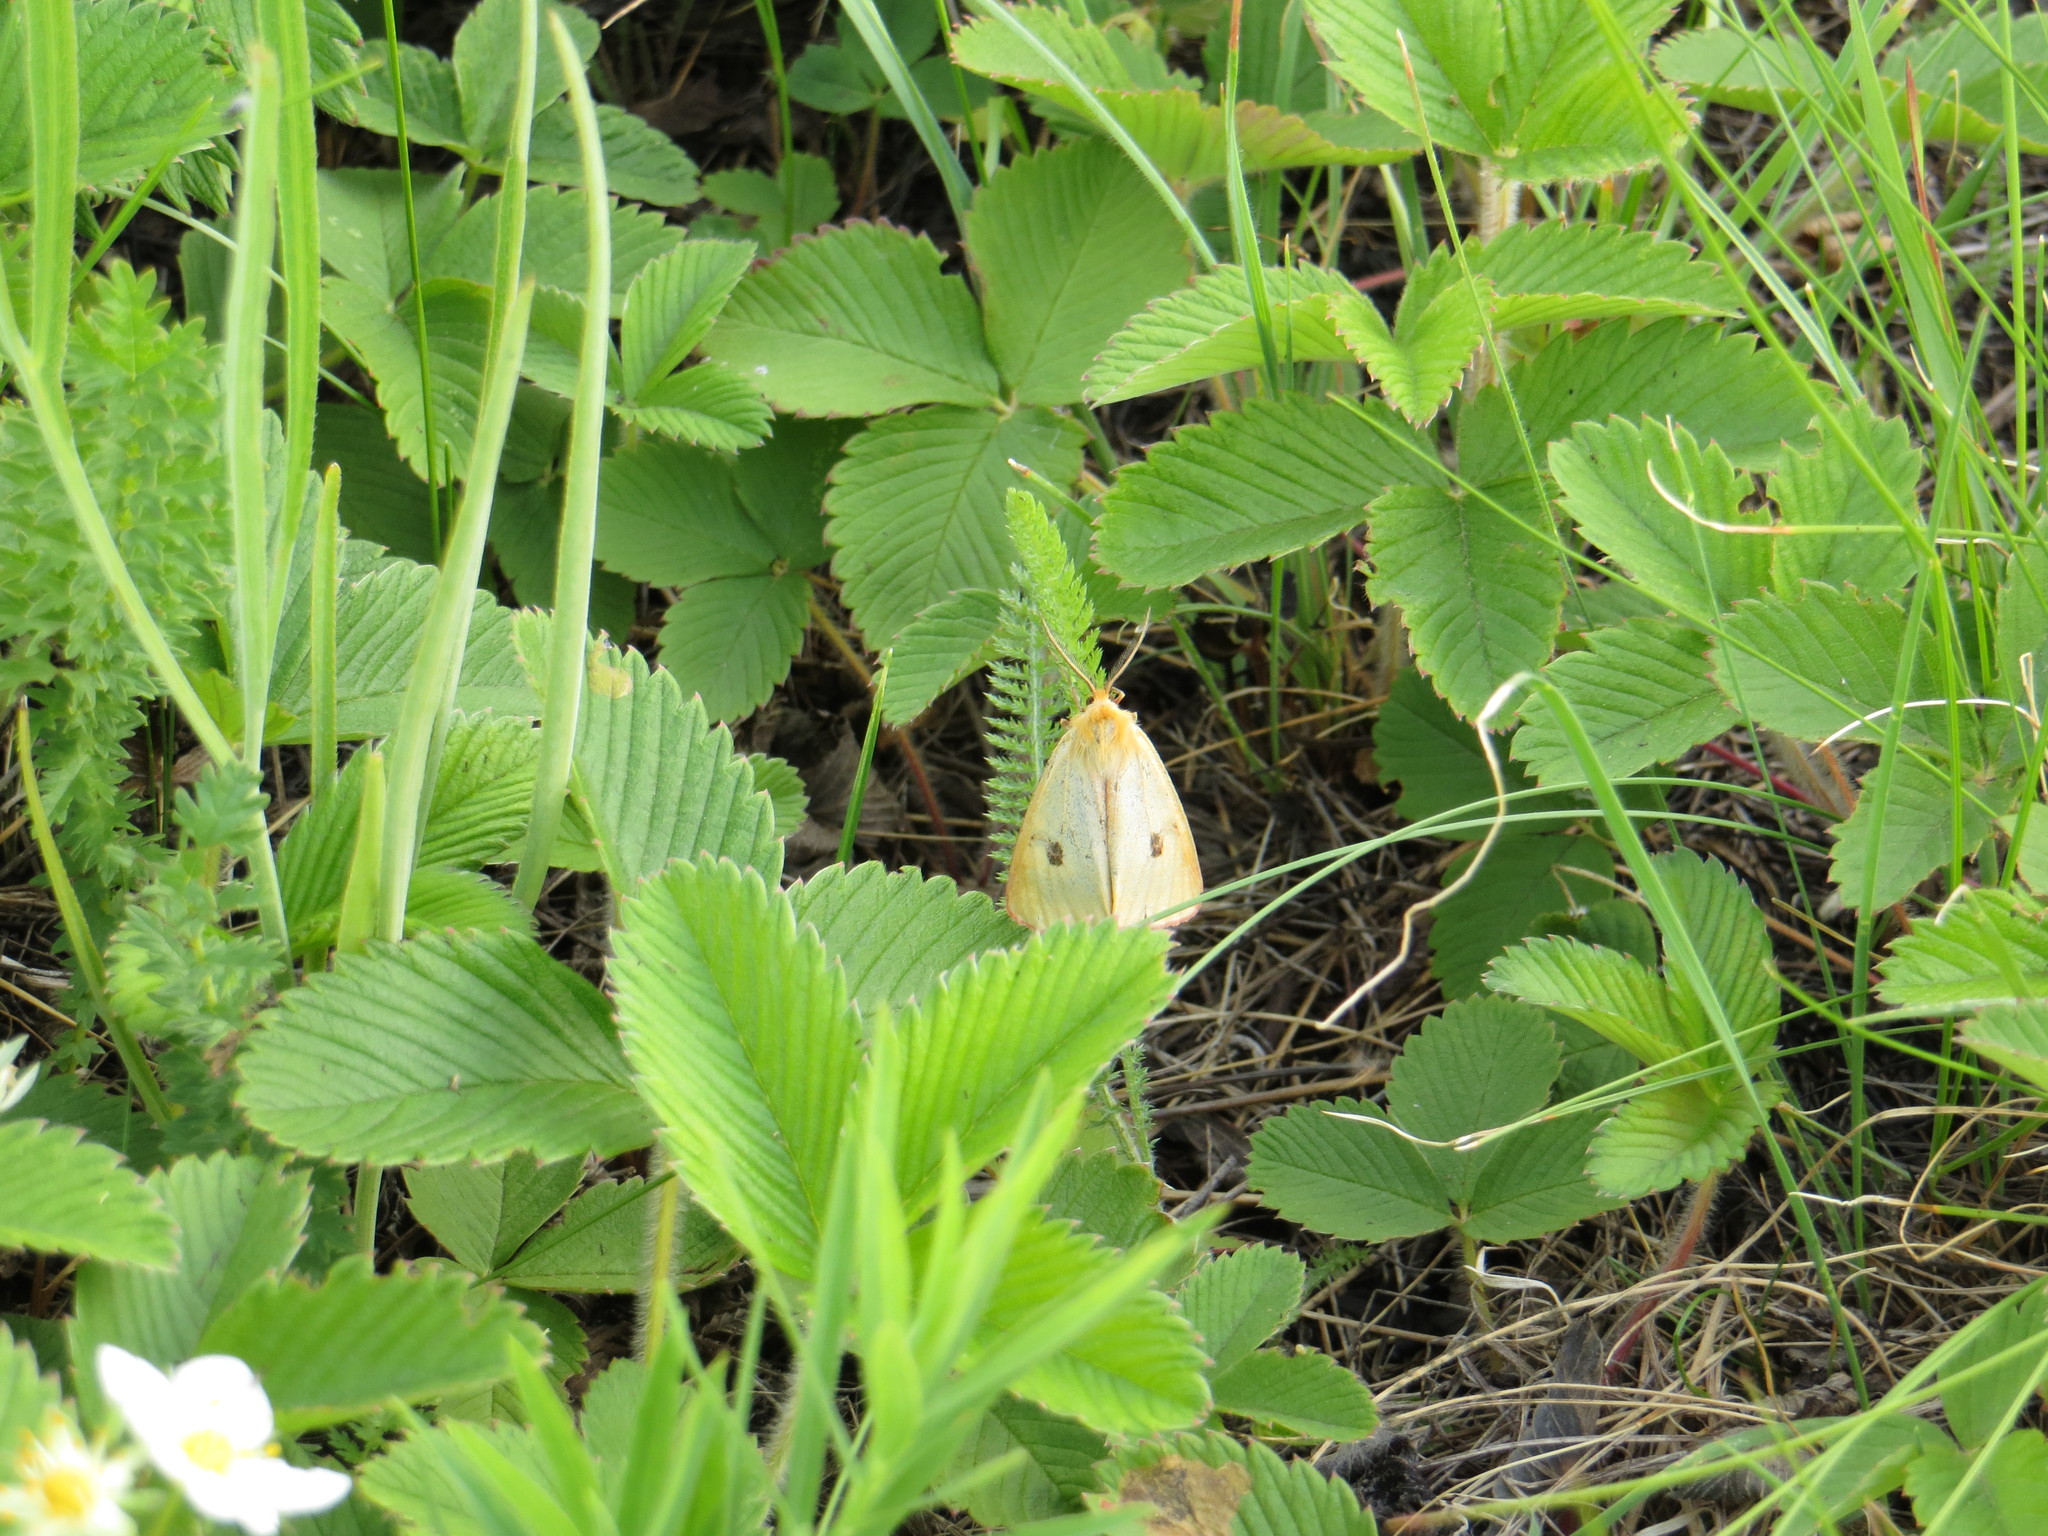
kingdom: Animalia
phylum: Arthropoda
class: Insecta
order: Lepidoptera
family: Erebidae
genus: Diacrisia
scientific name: Diacrisia sannio
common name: Clouded buff
